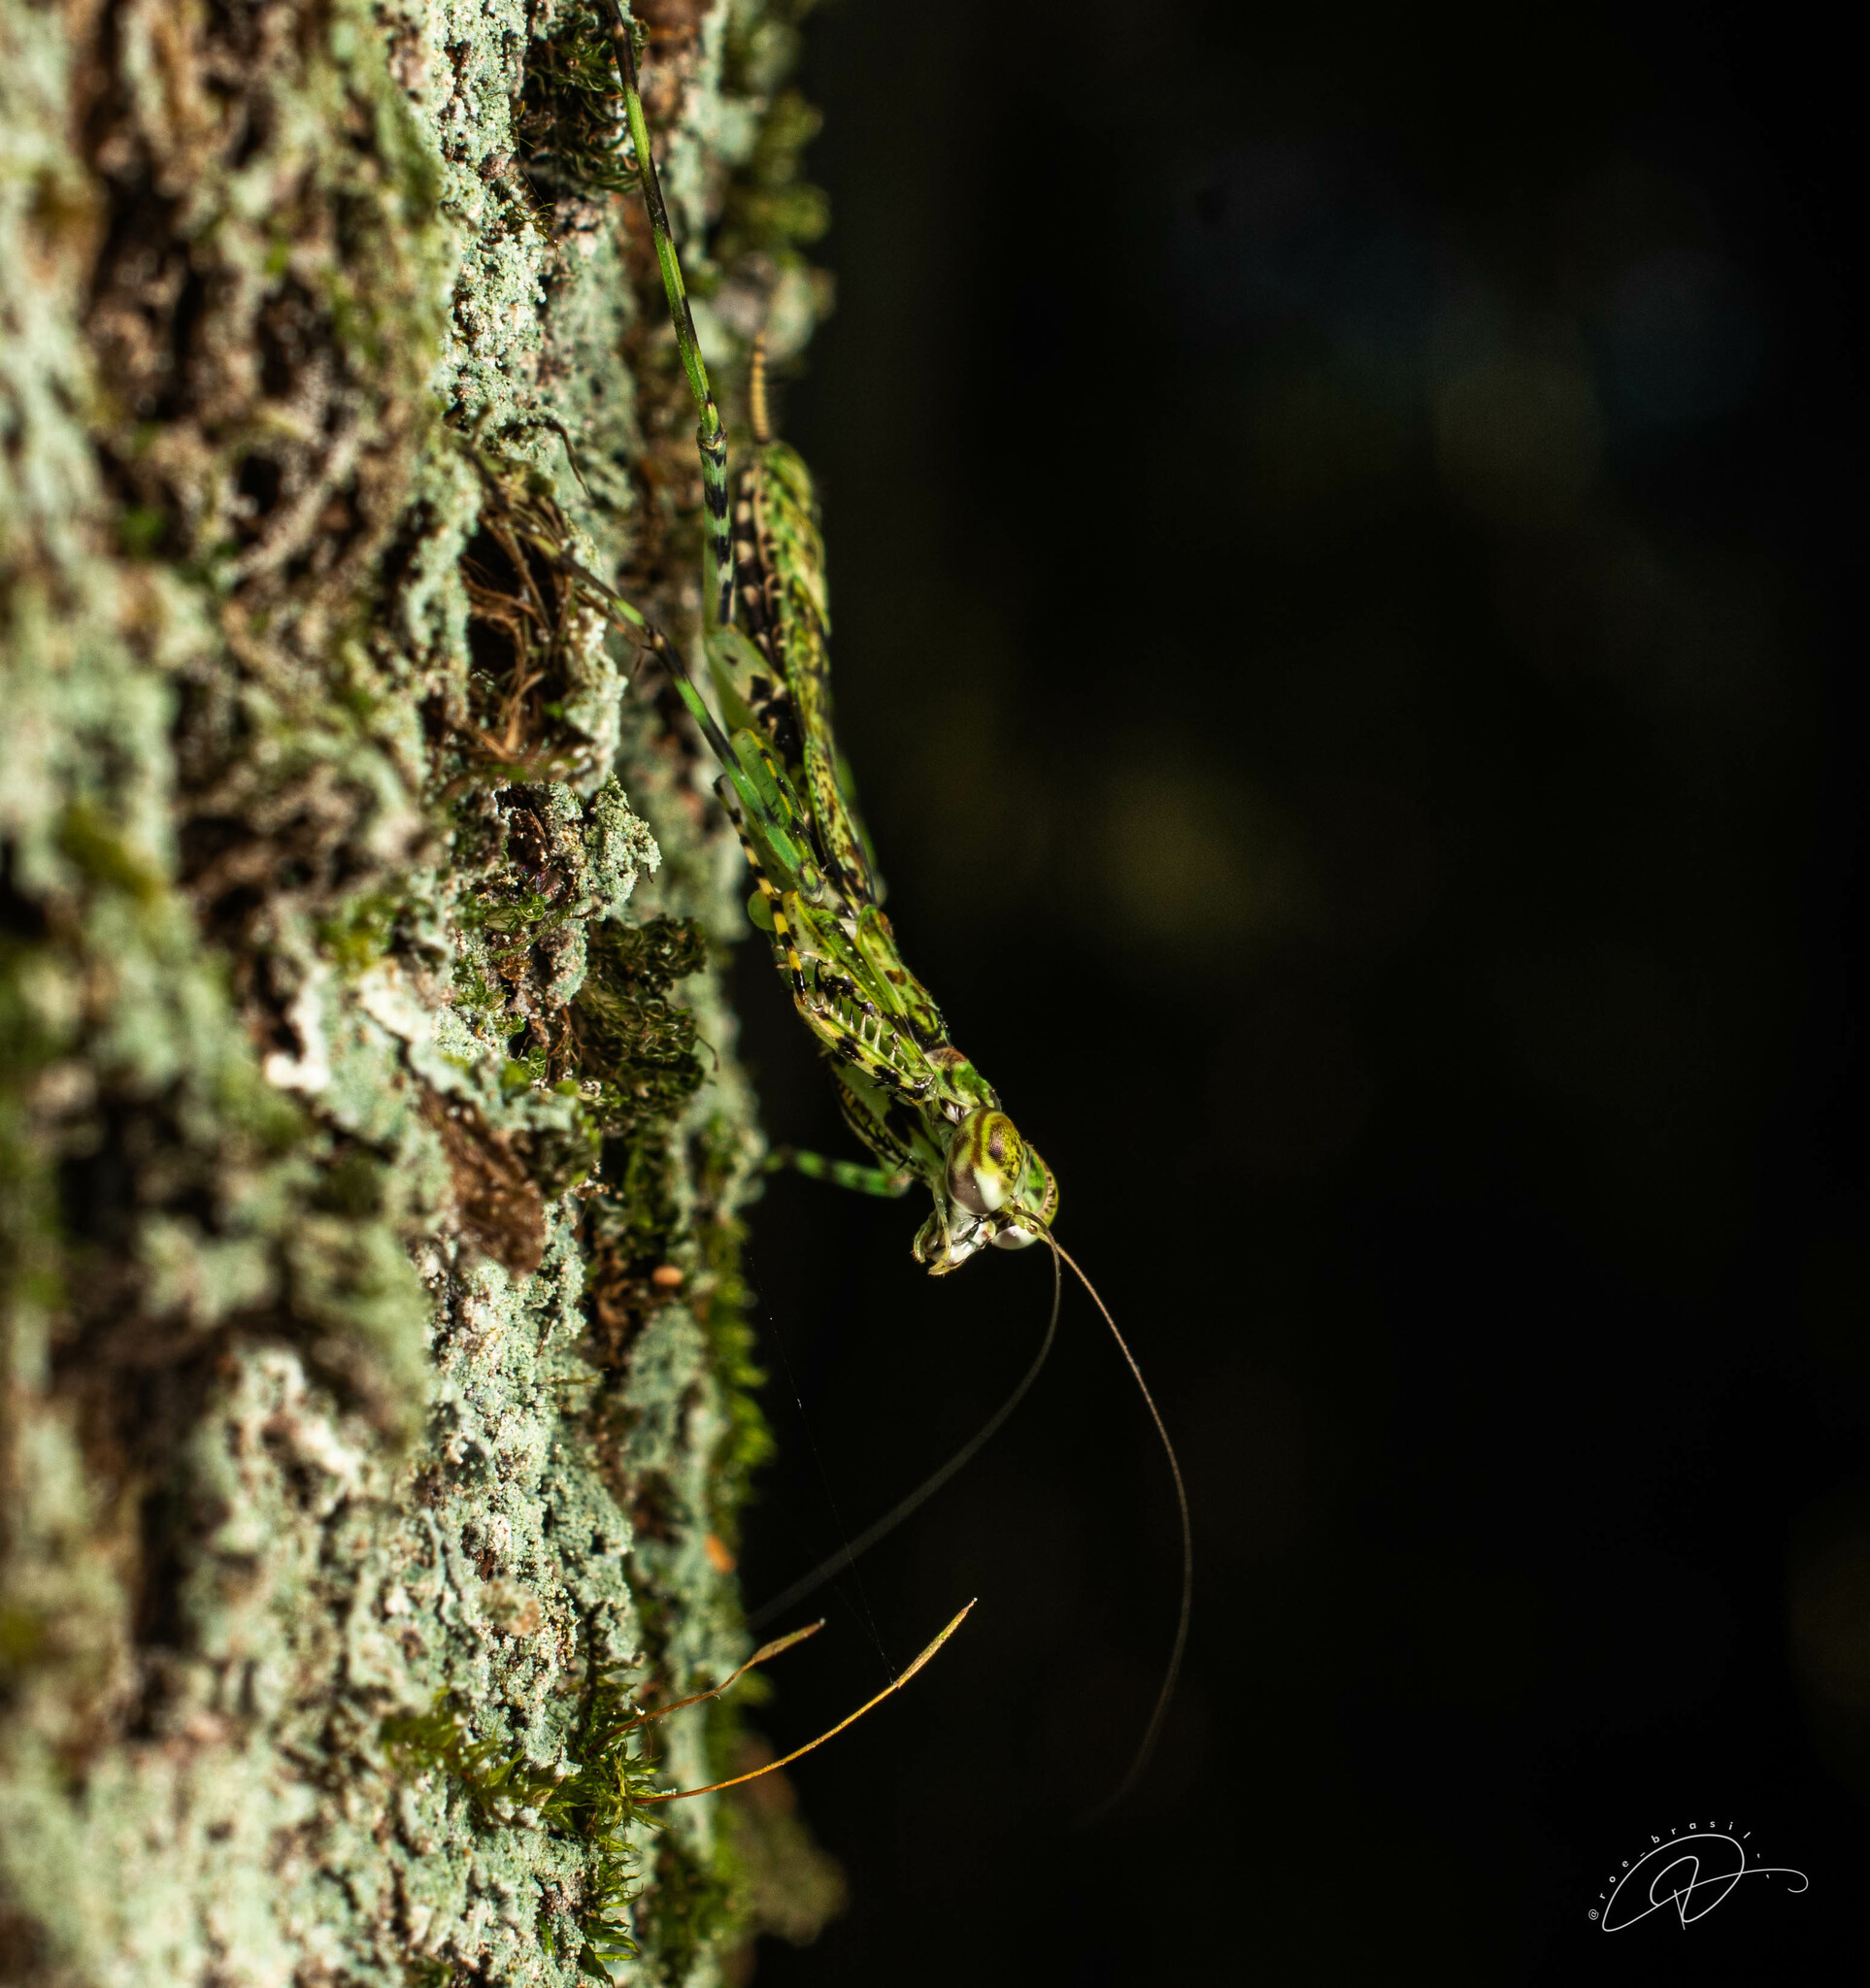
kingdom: Animalia
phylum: Arthropoda
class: Insecta
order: Mantodea
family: Liturgusidae
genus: Fuga
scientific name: Fuga annulipes
